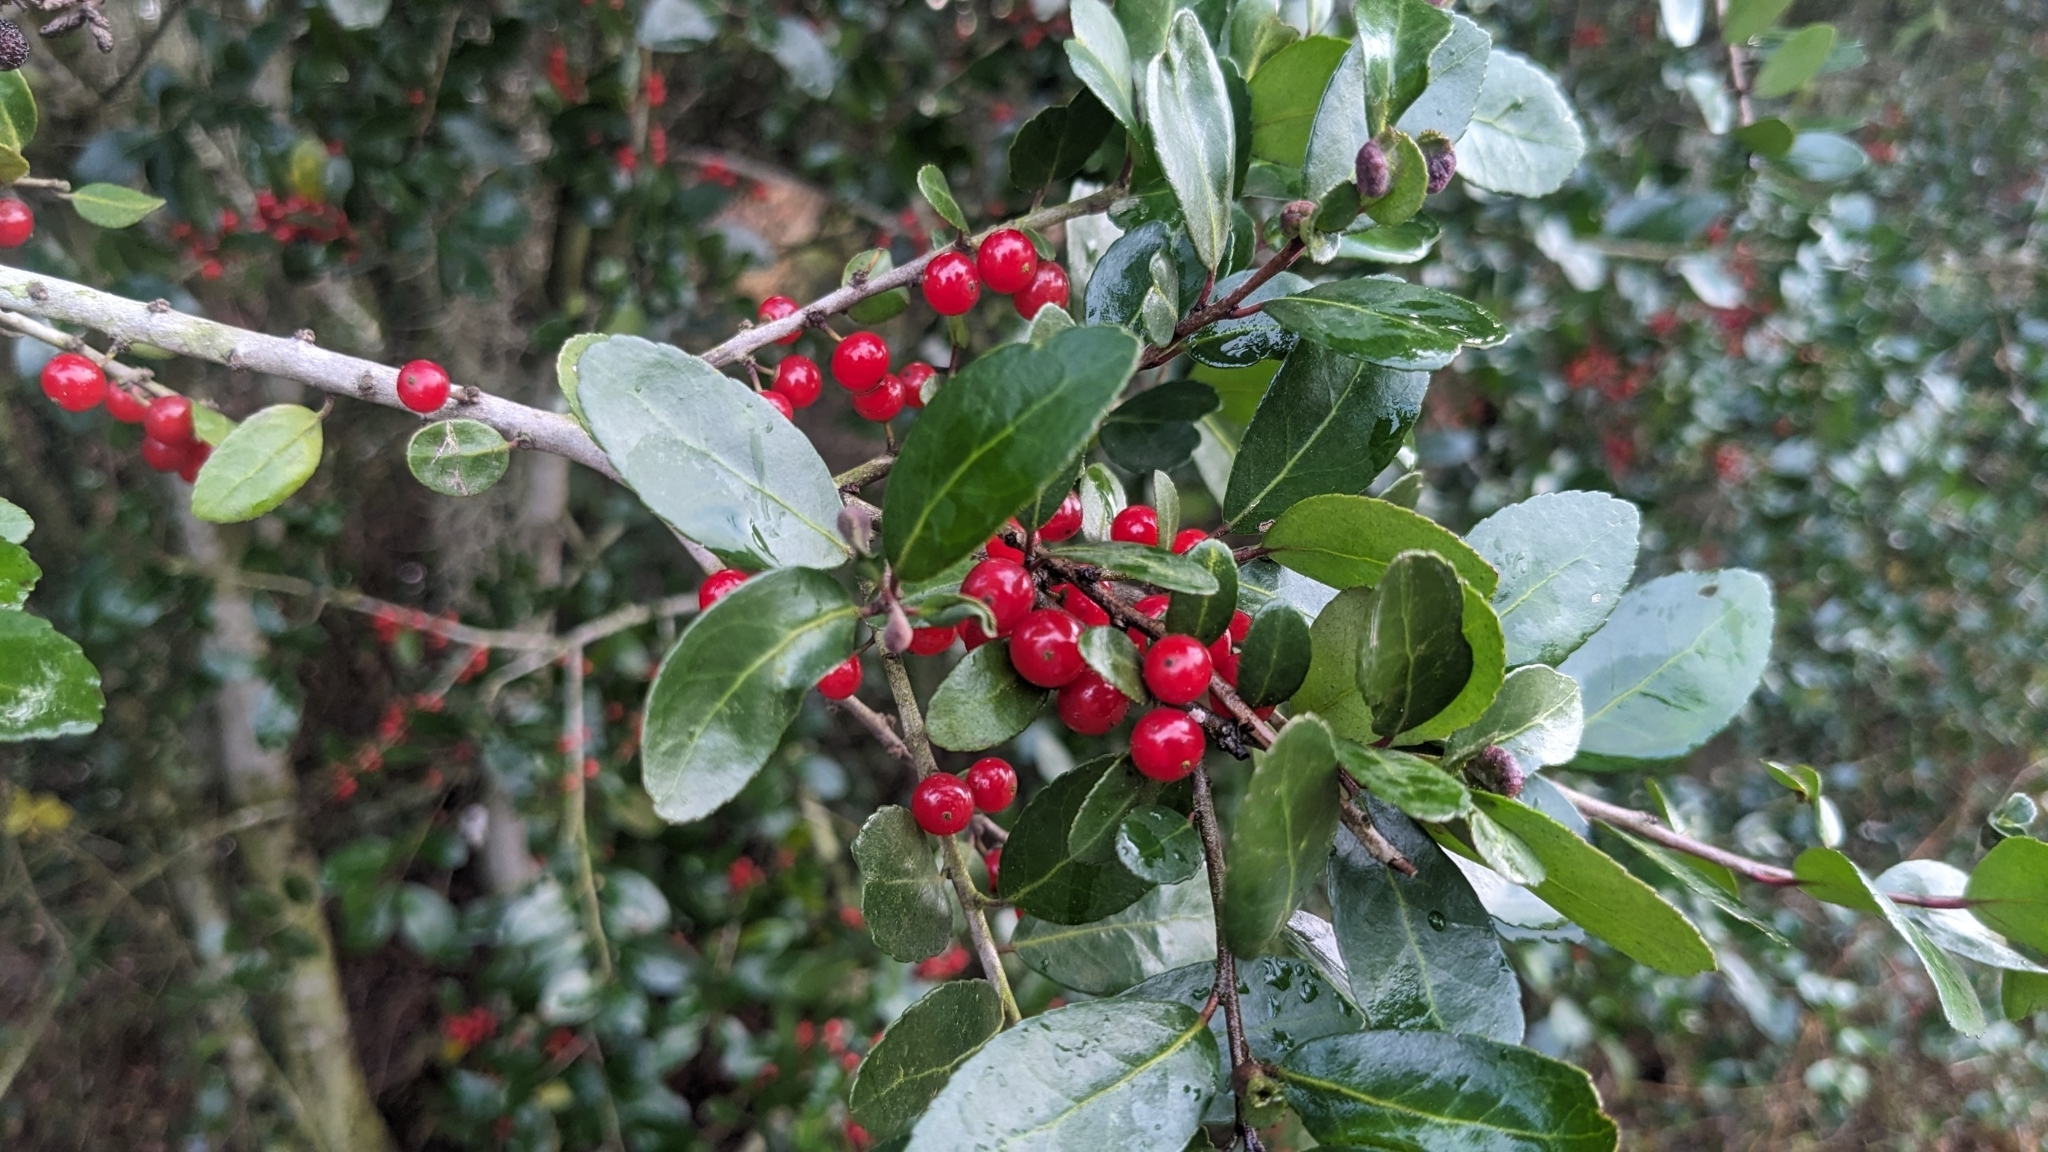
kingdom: Plantae
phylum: Tracheophyta
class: Magnoliopsida
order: Aquifoliales
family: Aquifoliaceae
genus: Ilex
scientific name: Ilex vomitoria
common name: Yaupon holly
